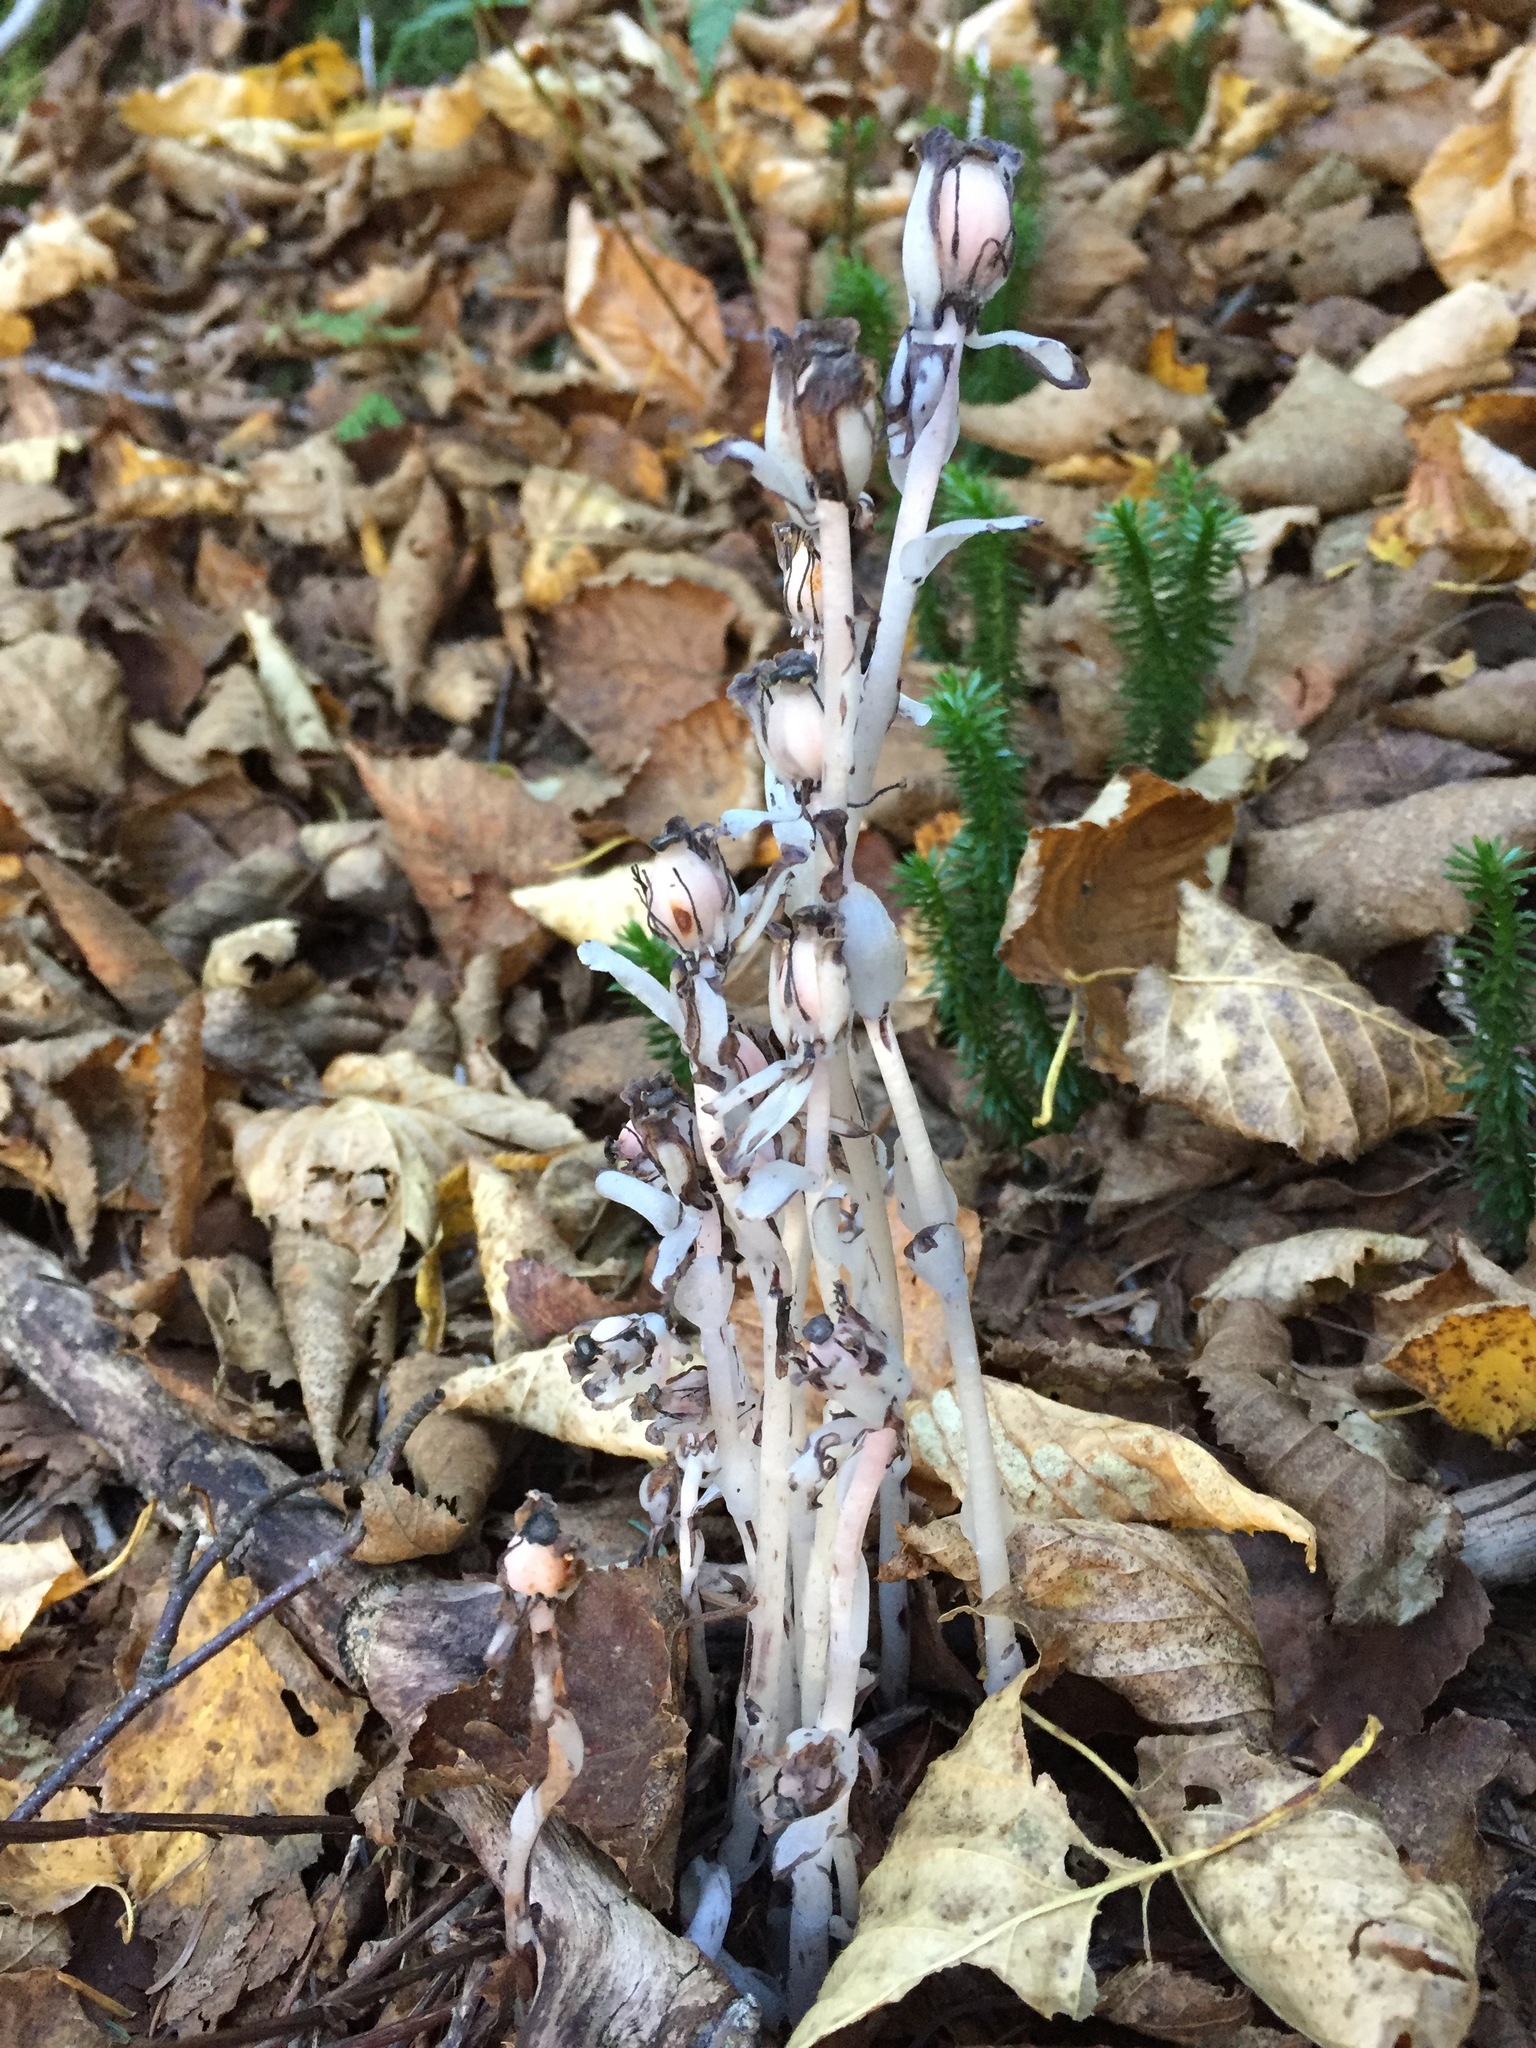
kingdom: Plantae
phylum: Tracheophyta
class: Magnoliopsida
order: Ericales
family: Ericaceae
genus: Monotropa
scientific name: Monotropa uniflora
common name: Convulsion root
